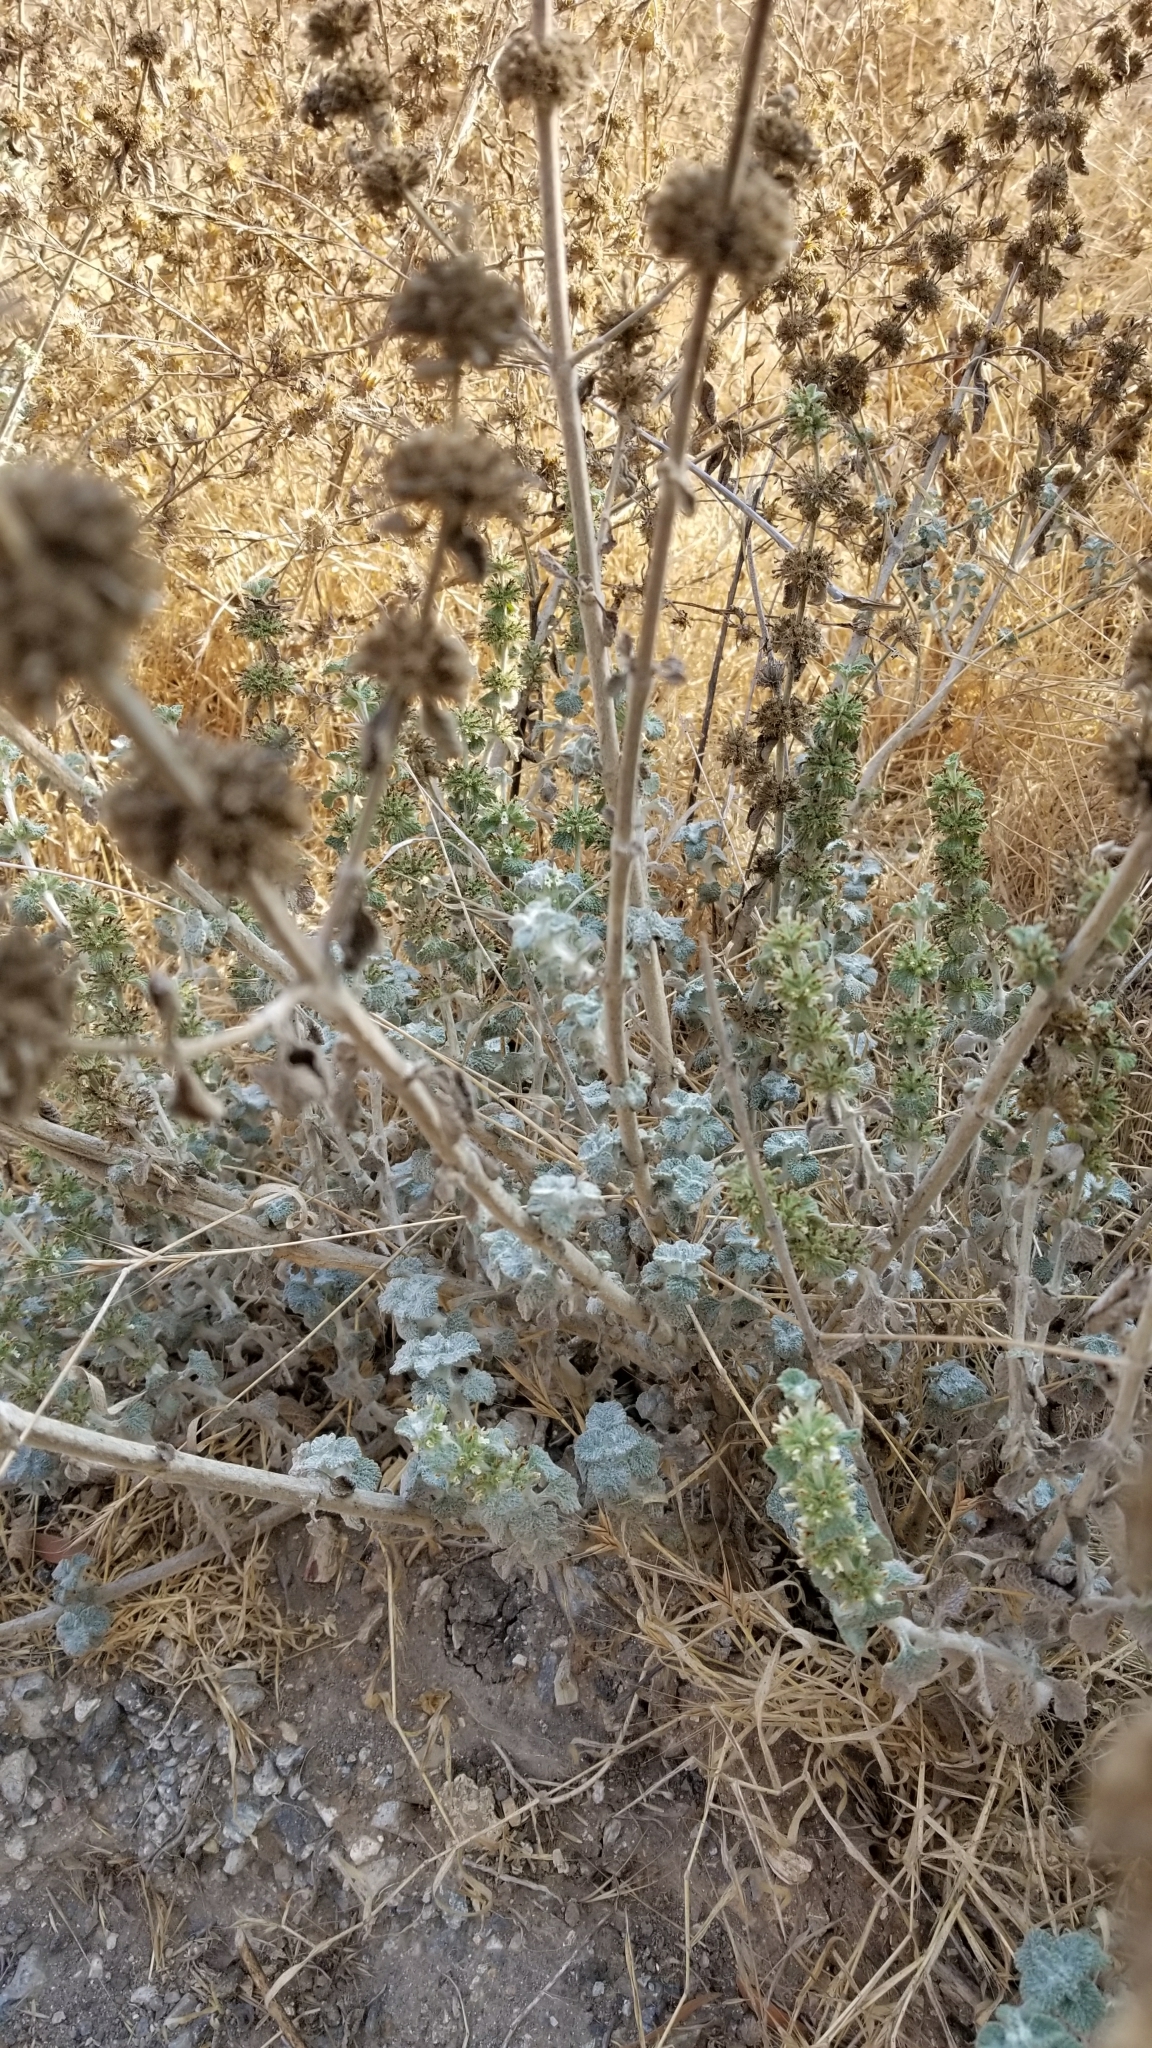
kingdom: Plantae
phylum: Tracheophyta
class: Magnoliopsida
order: Lamiales
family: Lamiaceae
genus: Marrubium
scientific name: Marrubium vulgare
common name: Horehound
